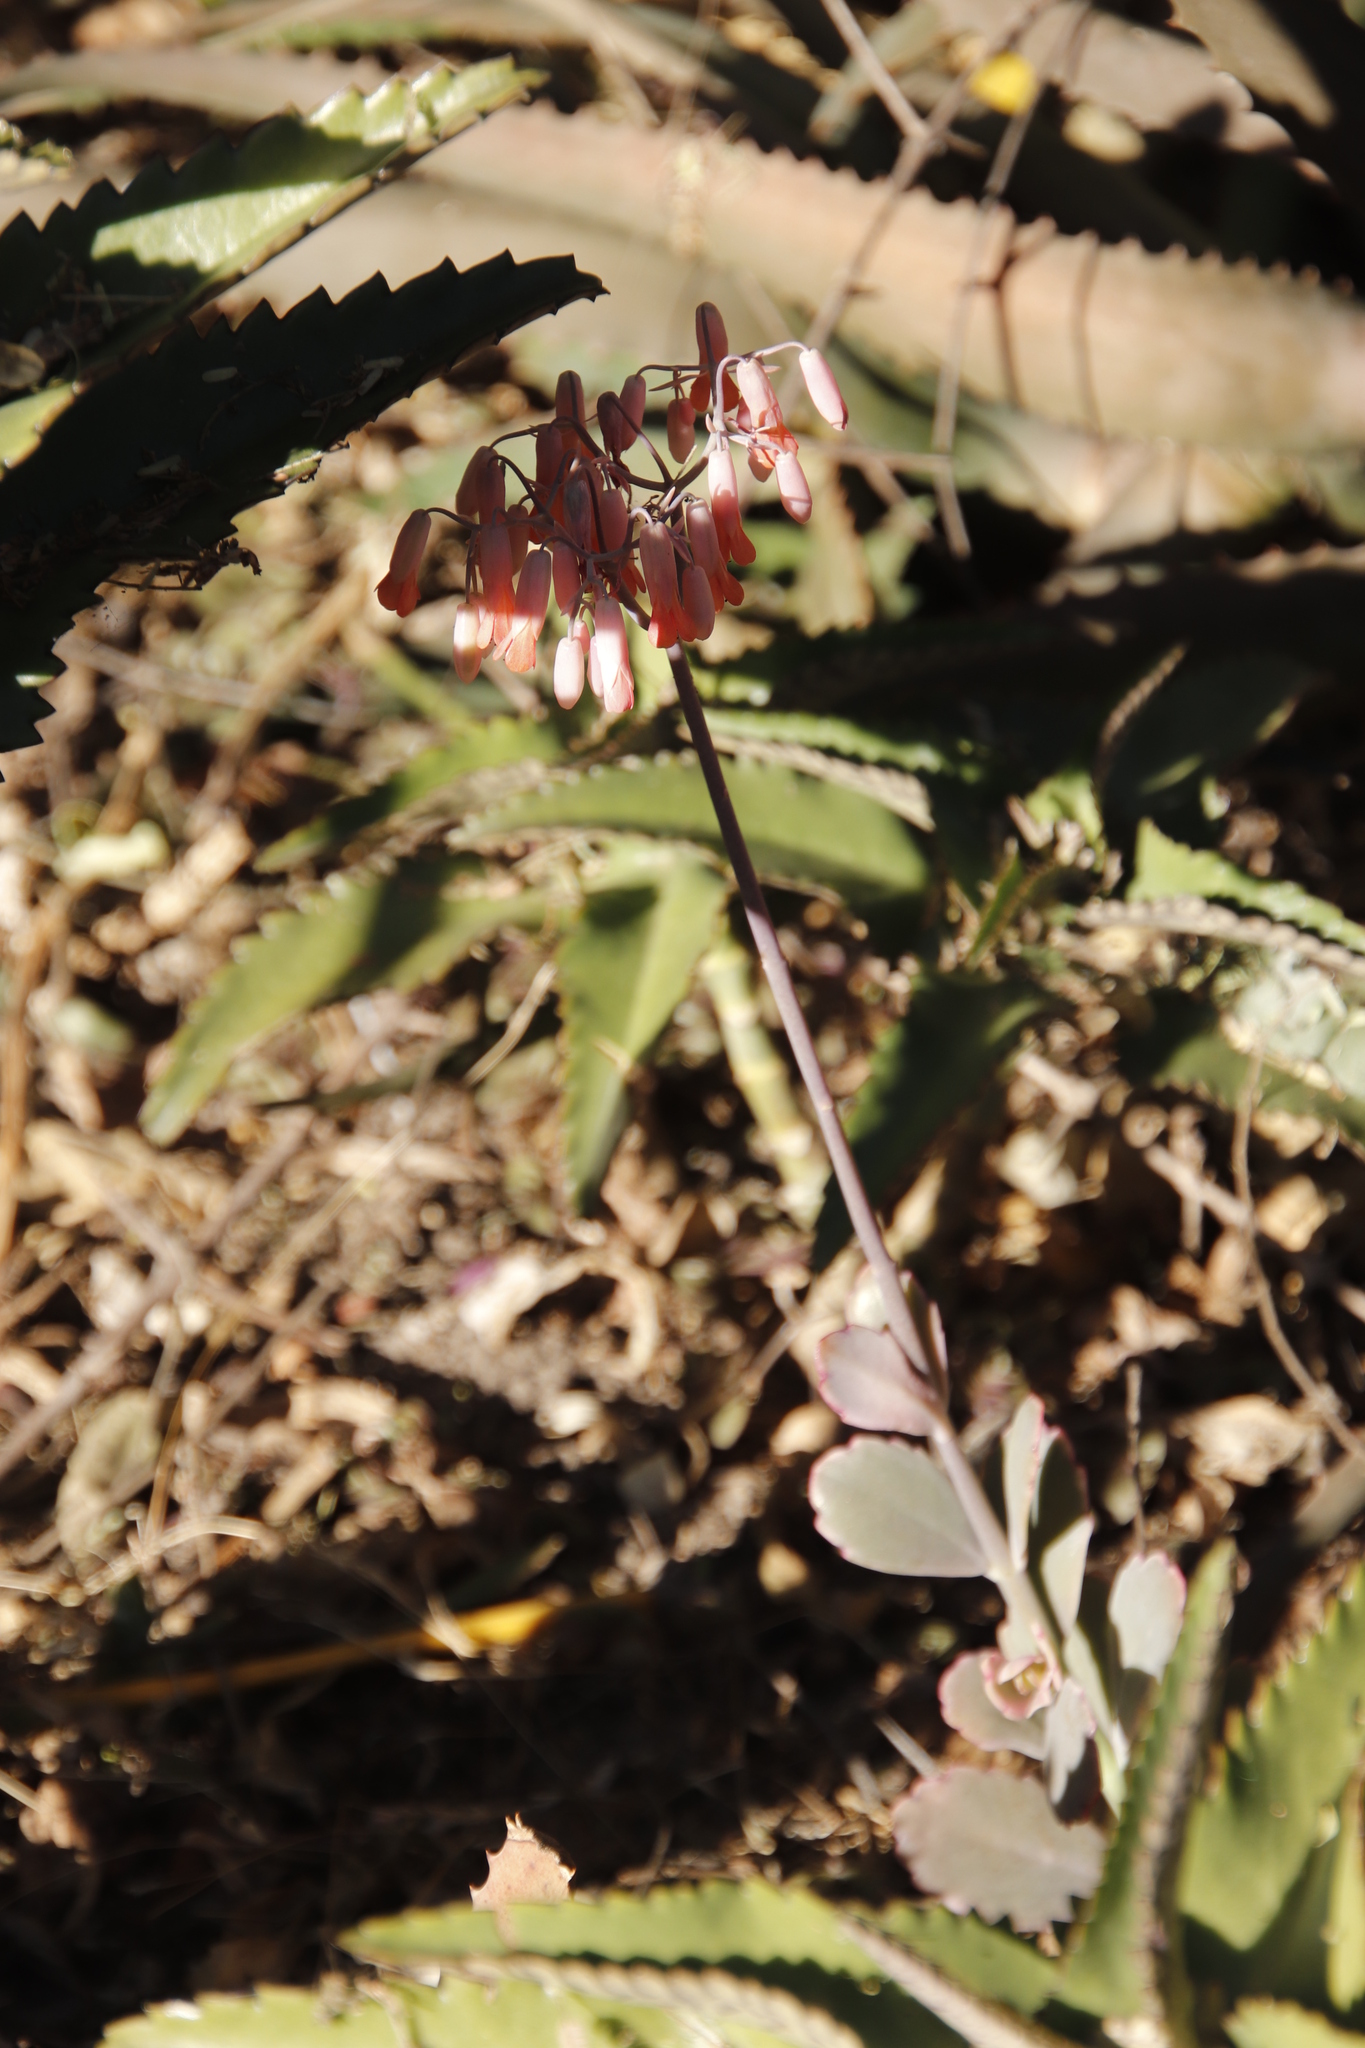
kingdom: Plantae
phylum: Tracheophyta
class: Magnoliopsida
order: Saxifragales
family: Crassulaceae
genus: Kalanchoe
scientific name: Kalanchoe daigremontiana
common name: Devil's backbone
